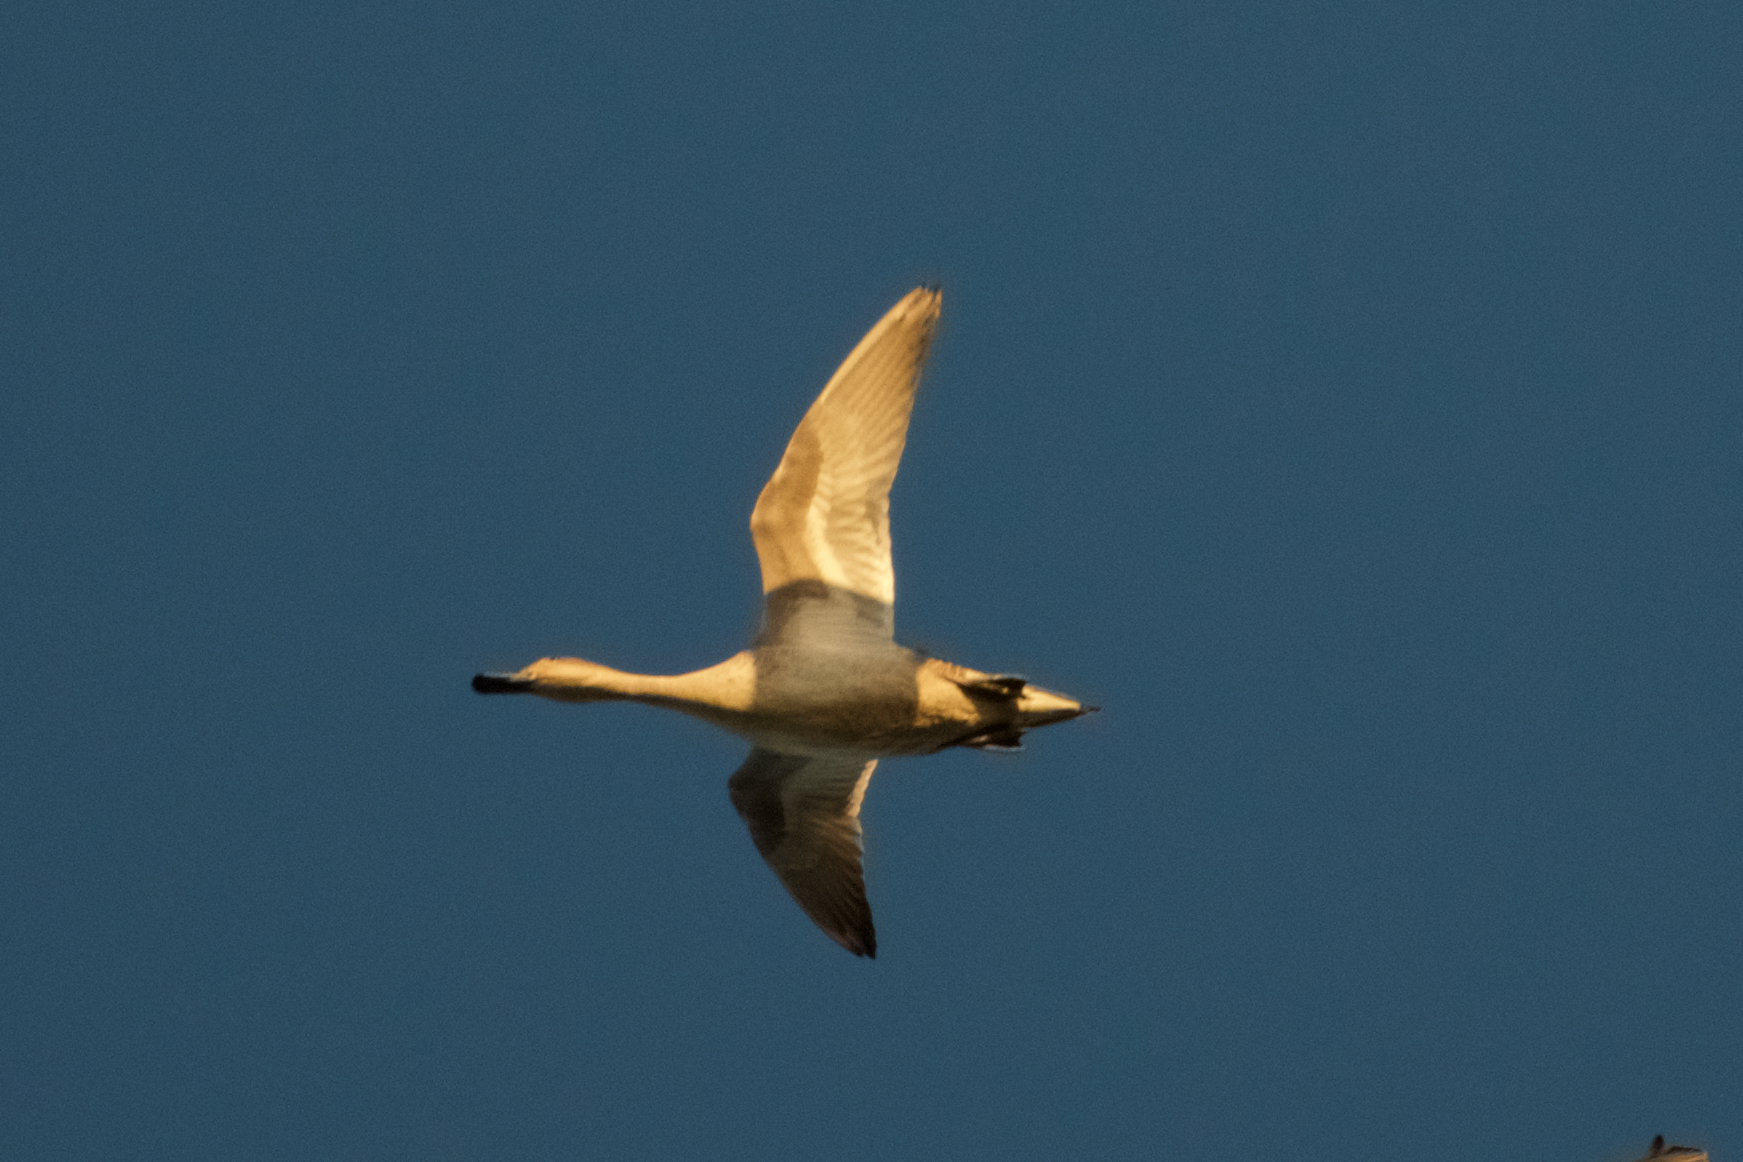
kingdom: Animalia
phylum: Chordata
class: Aves
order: Anseriformes
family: Anatidae
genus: Anas
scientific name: Anas acuta
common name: Northern pintail
